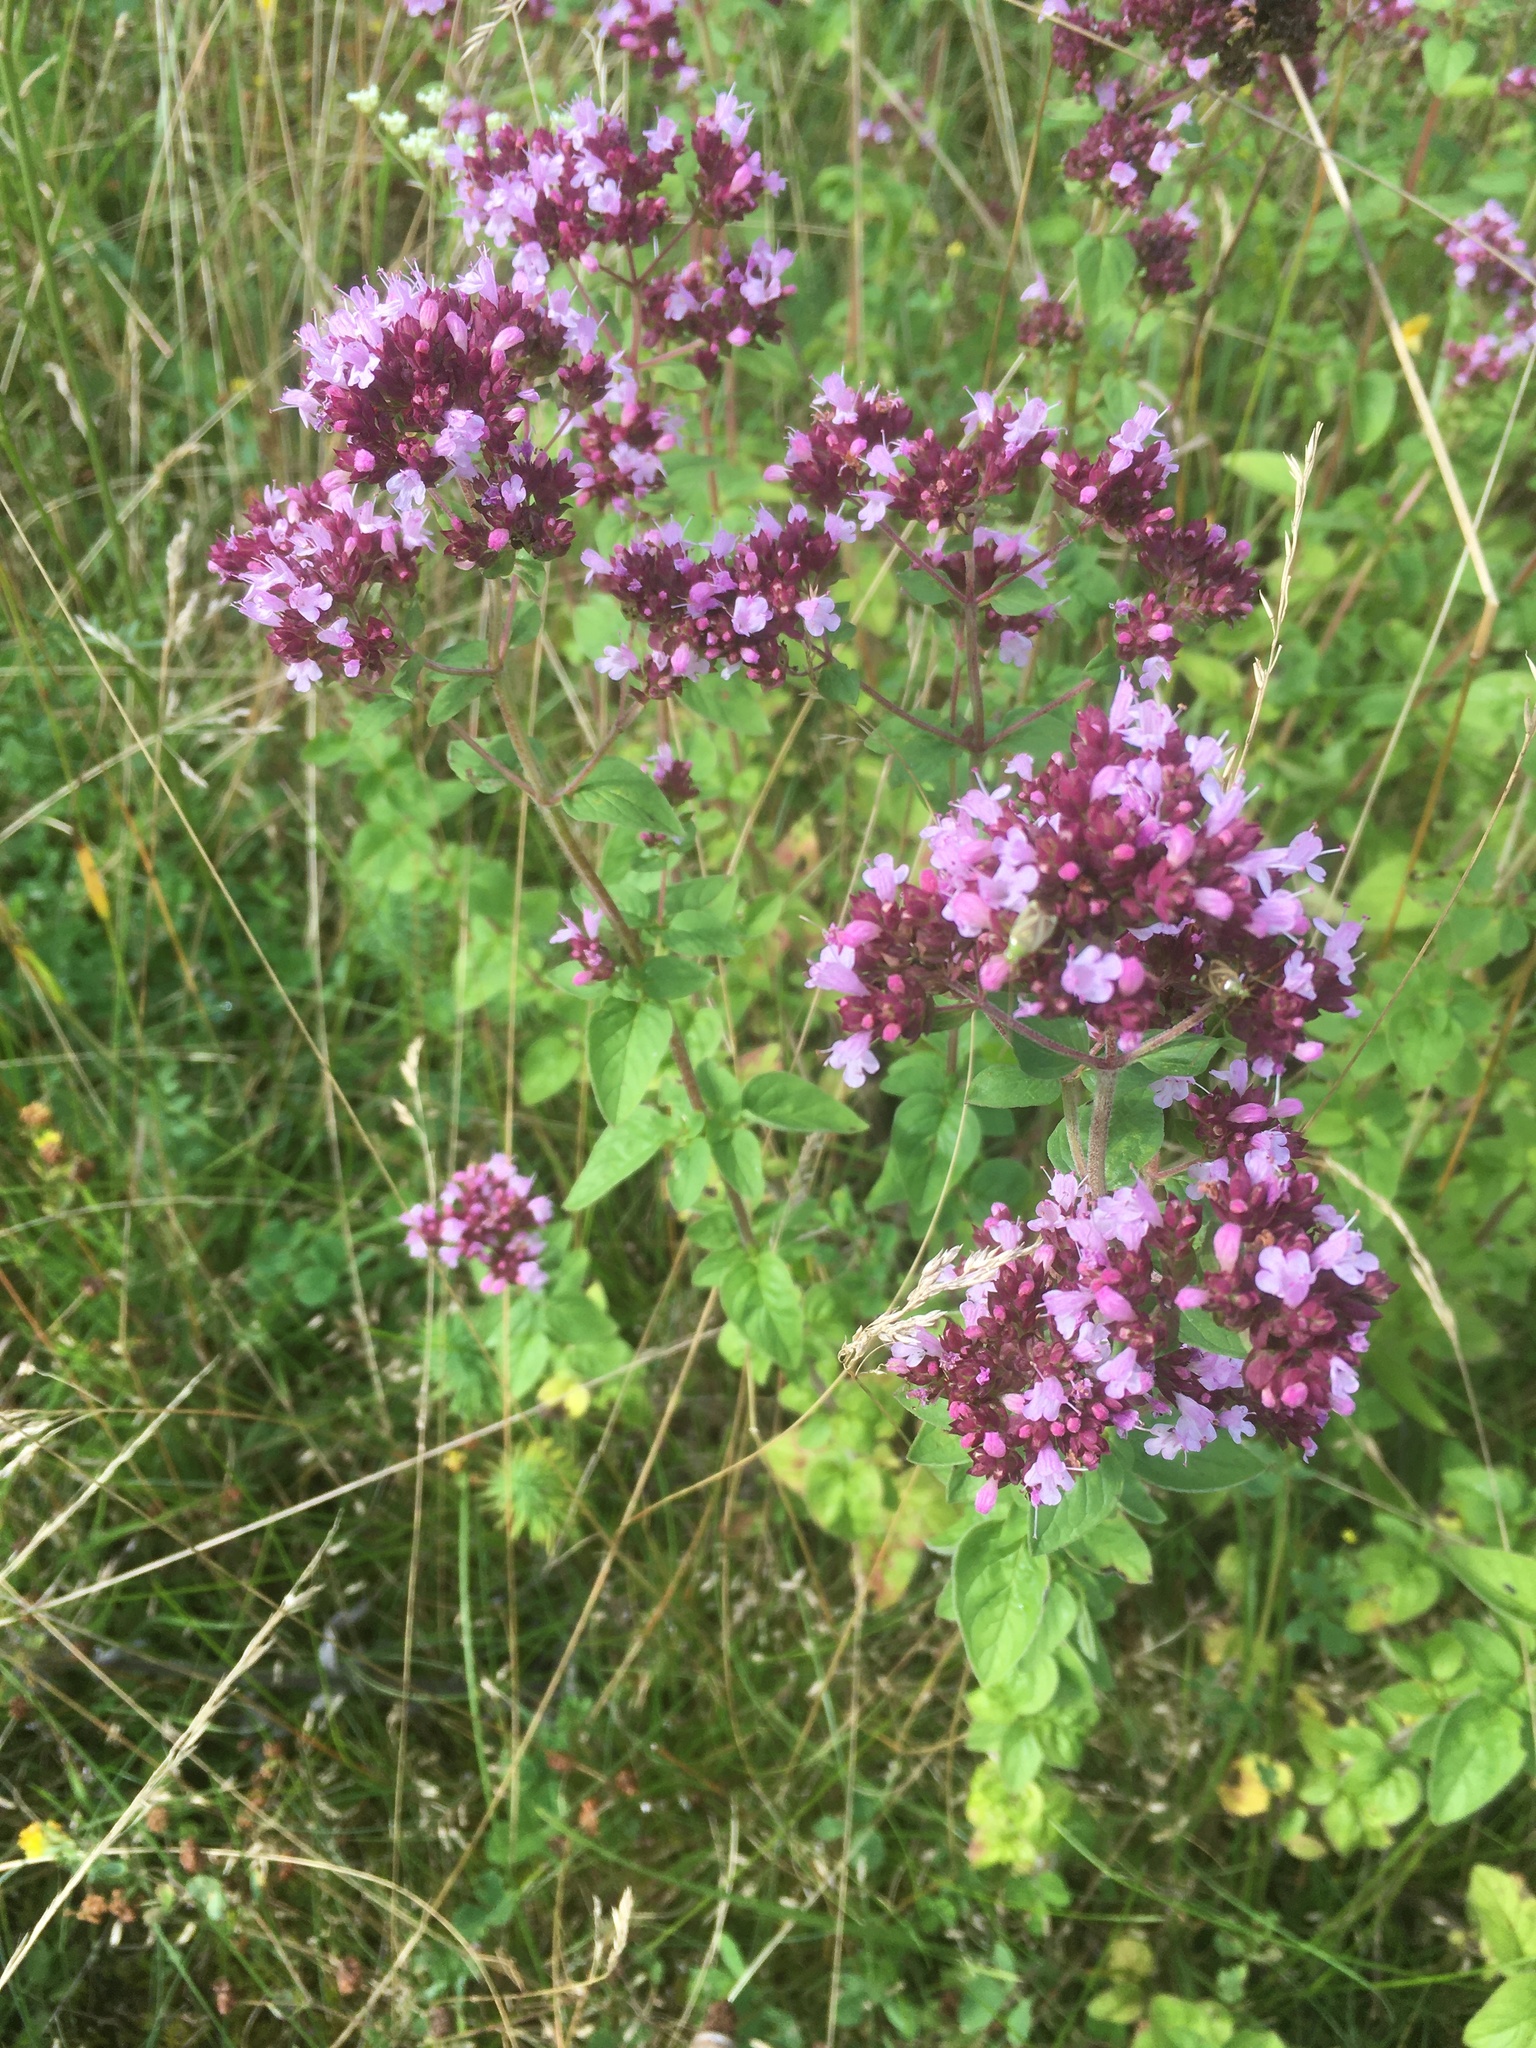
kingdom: Plantae
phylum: Tracheophyta
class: Magnoliopsida
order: Lamiales
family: Lamiaceae
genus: Origanum
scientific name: Origanum vulgare
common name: Wild marjoram
